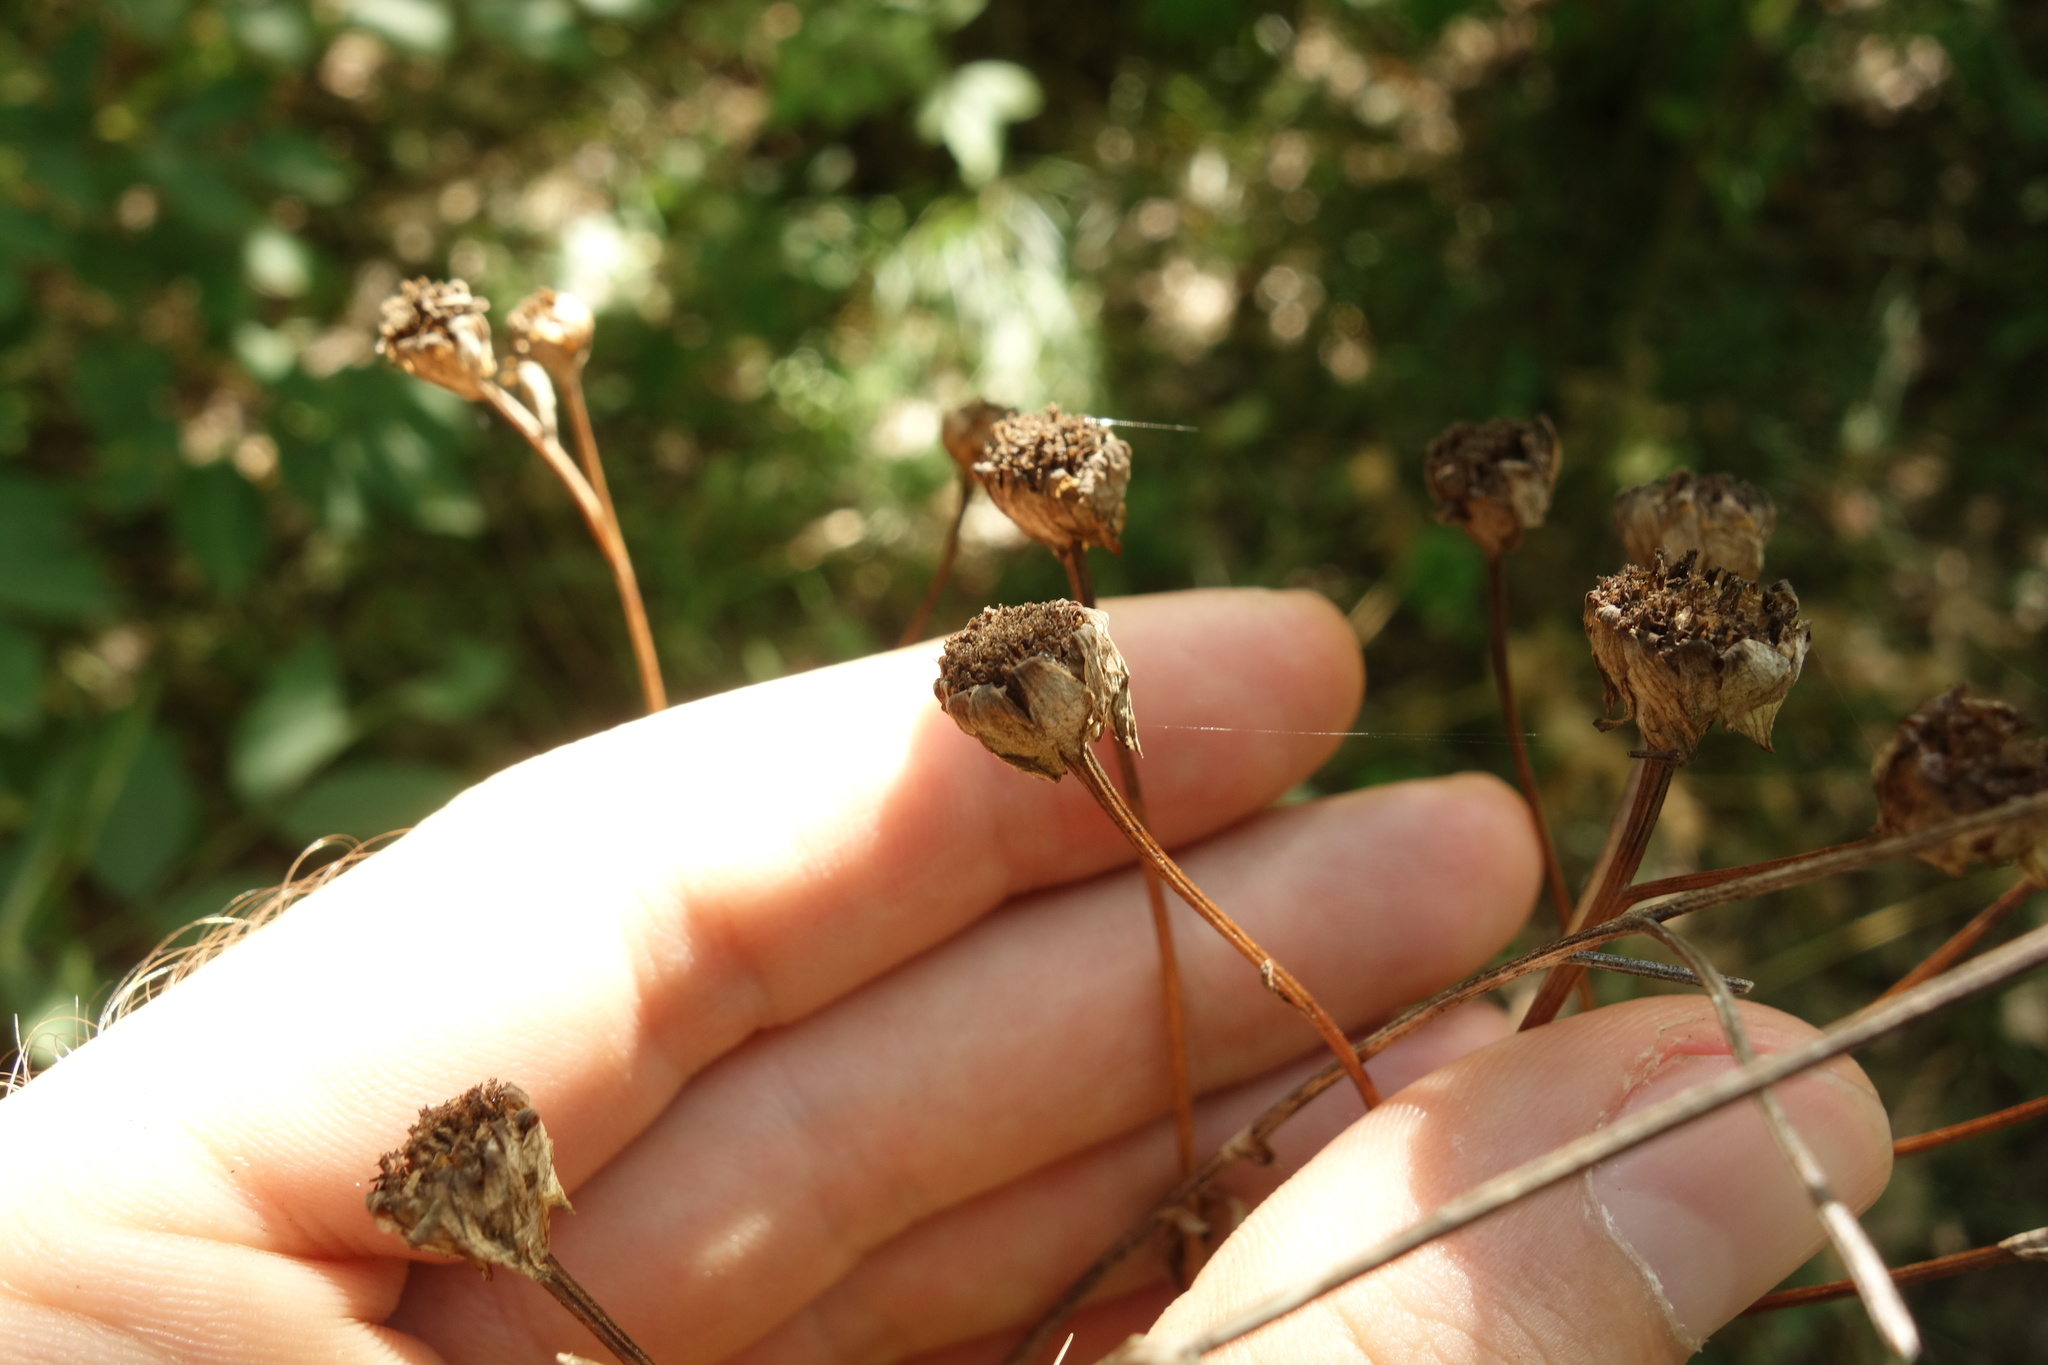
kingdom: Plantae
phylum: Tracheophyta
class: Magnoliopsida
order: Asterales
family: Asteraceae
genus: Tanacetum
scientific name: Tanacetum corymbosum
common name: Scentless feverfew
